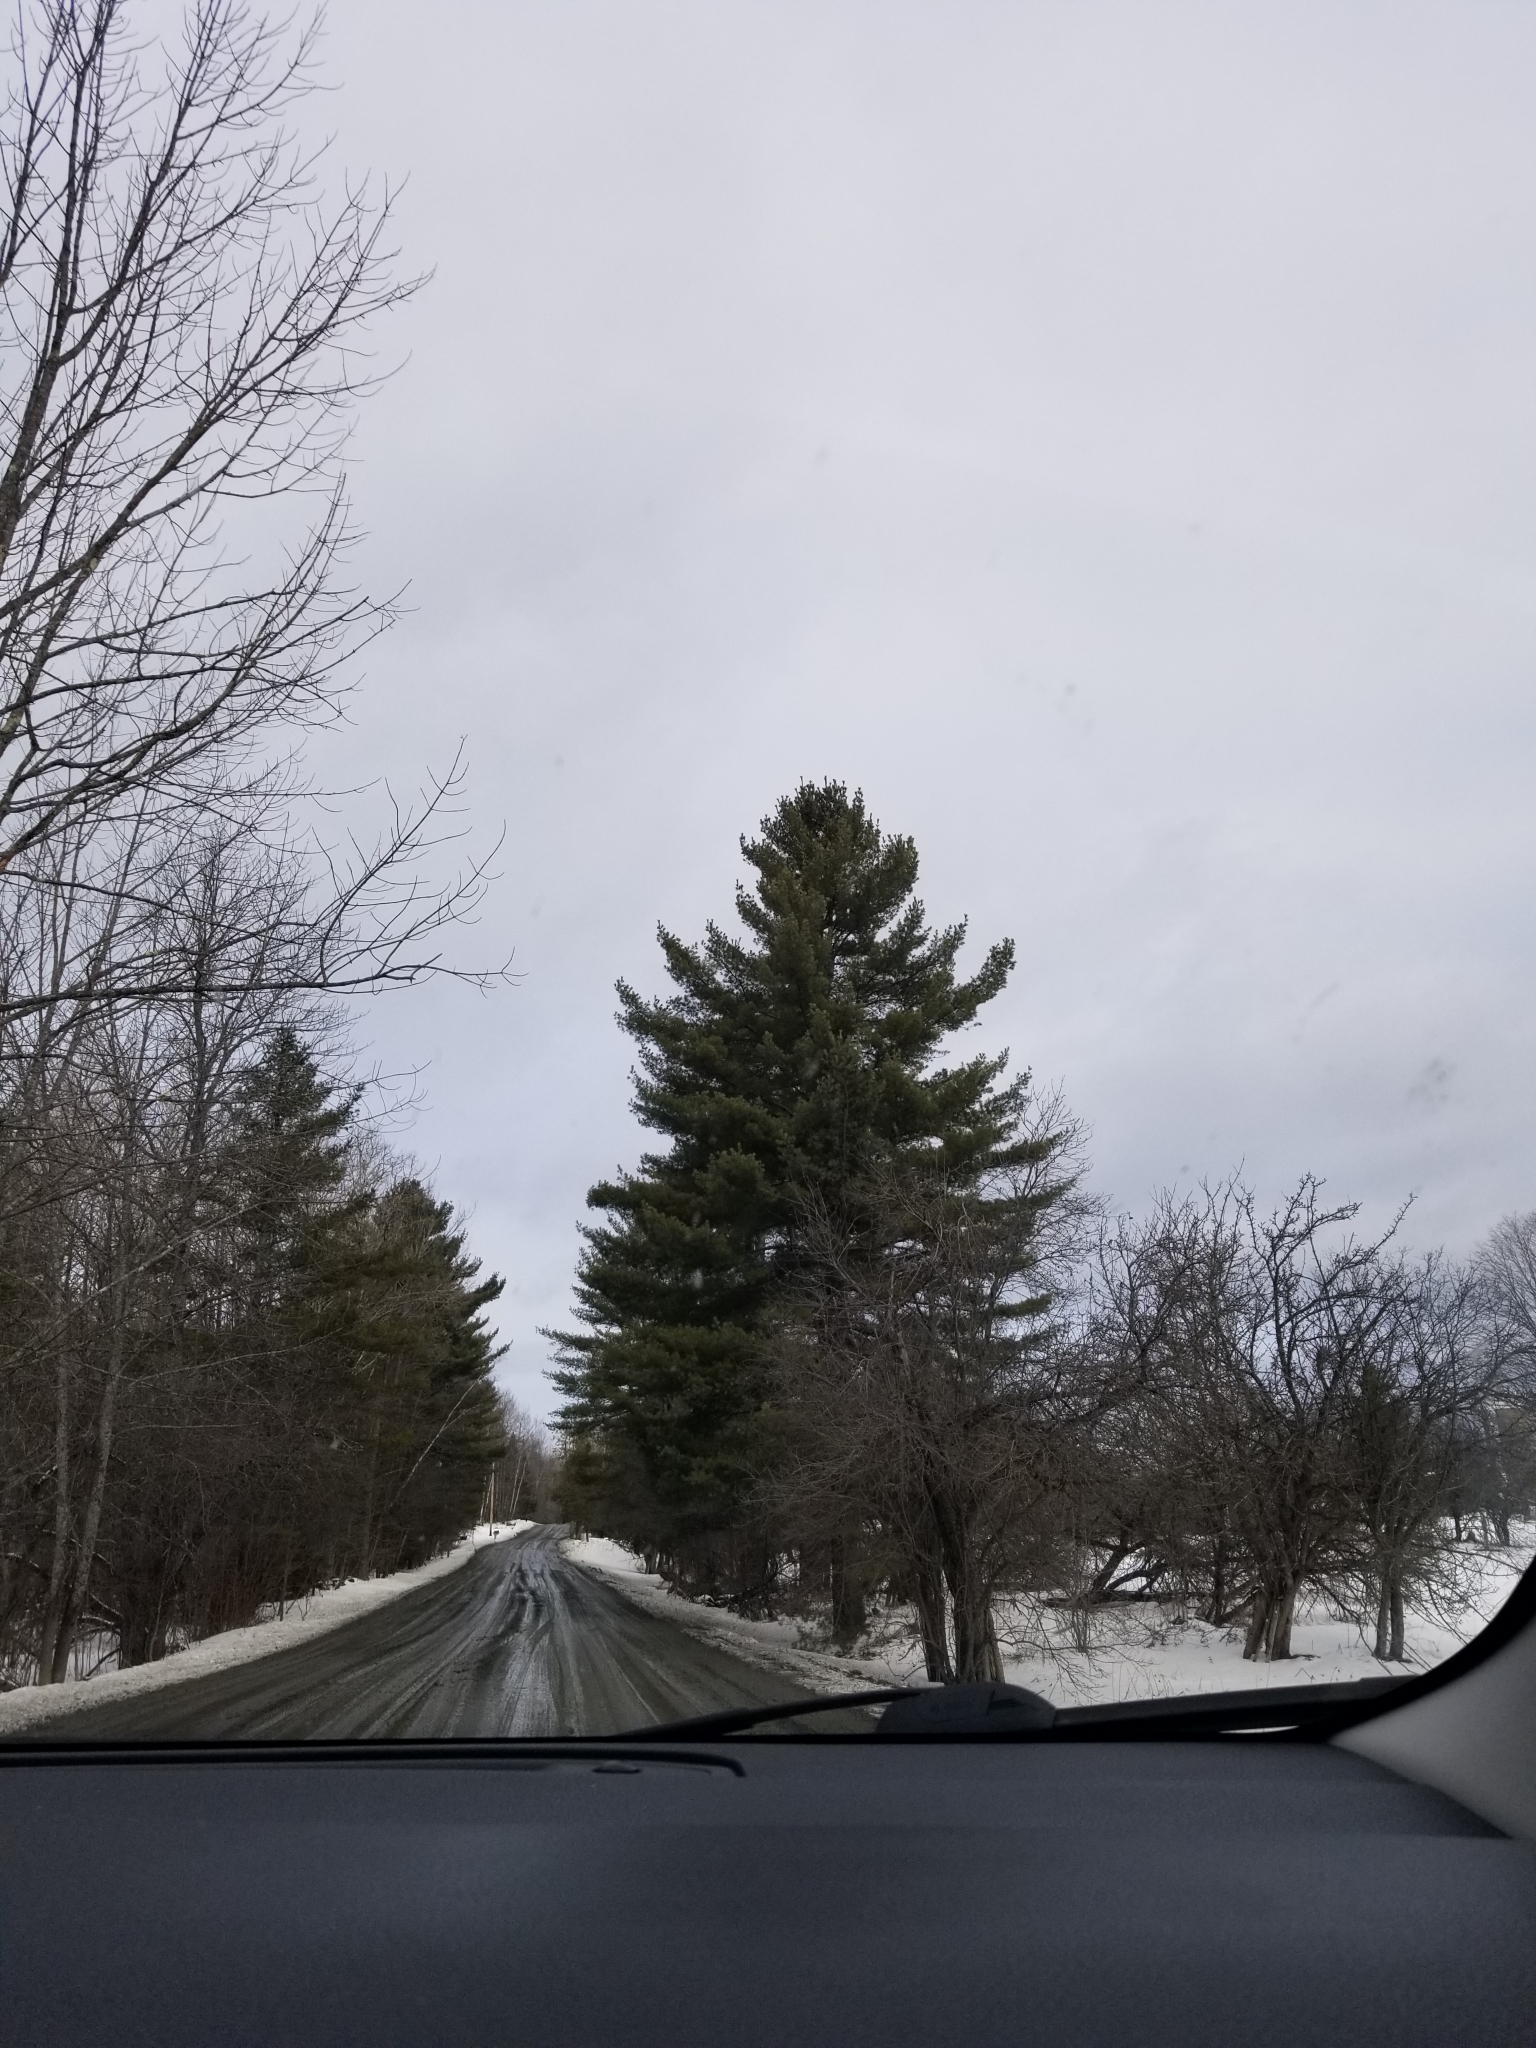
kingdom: Plantae
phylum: Tracheophyta
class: Pinopsida
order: Pinales
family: Pinaceae
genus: Pinus
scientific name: Pinus strobus
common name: Weymouth pine
